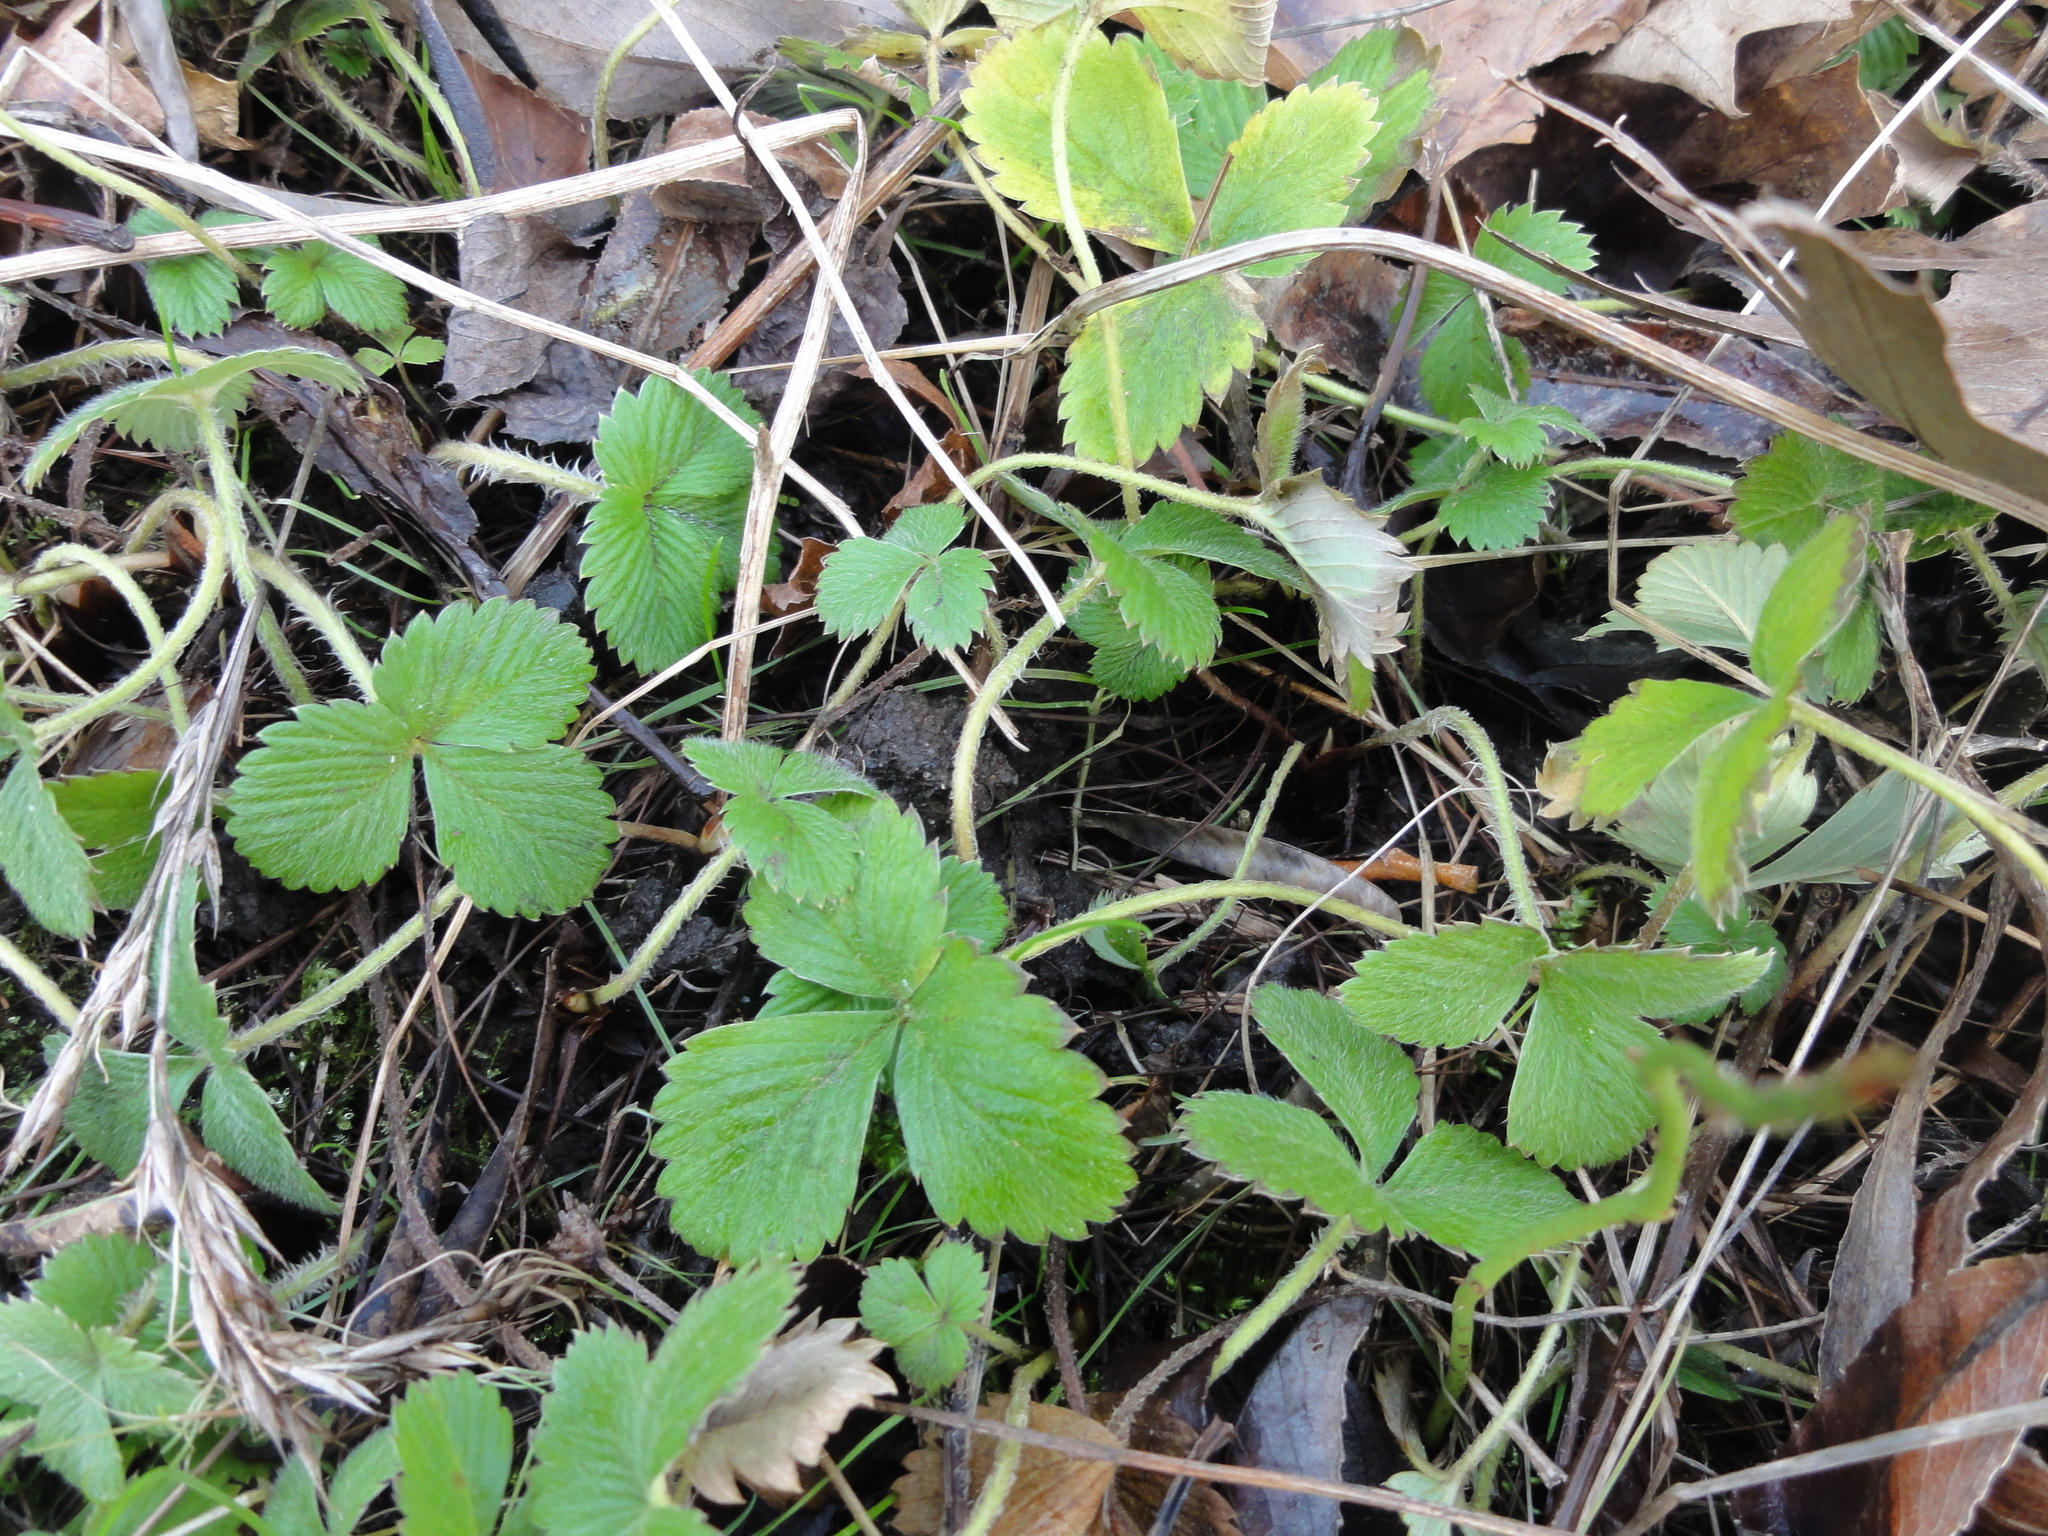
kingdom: Plantae
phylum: Tracheophyta
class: Magnoliopsida
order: Rosales
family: Rosaceae
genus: Fragaria
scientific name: Fragaria vesca
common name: Wild strawberry
